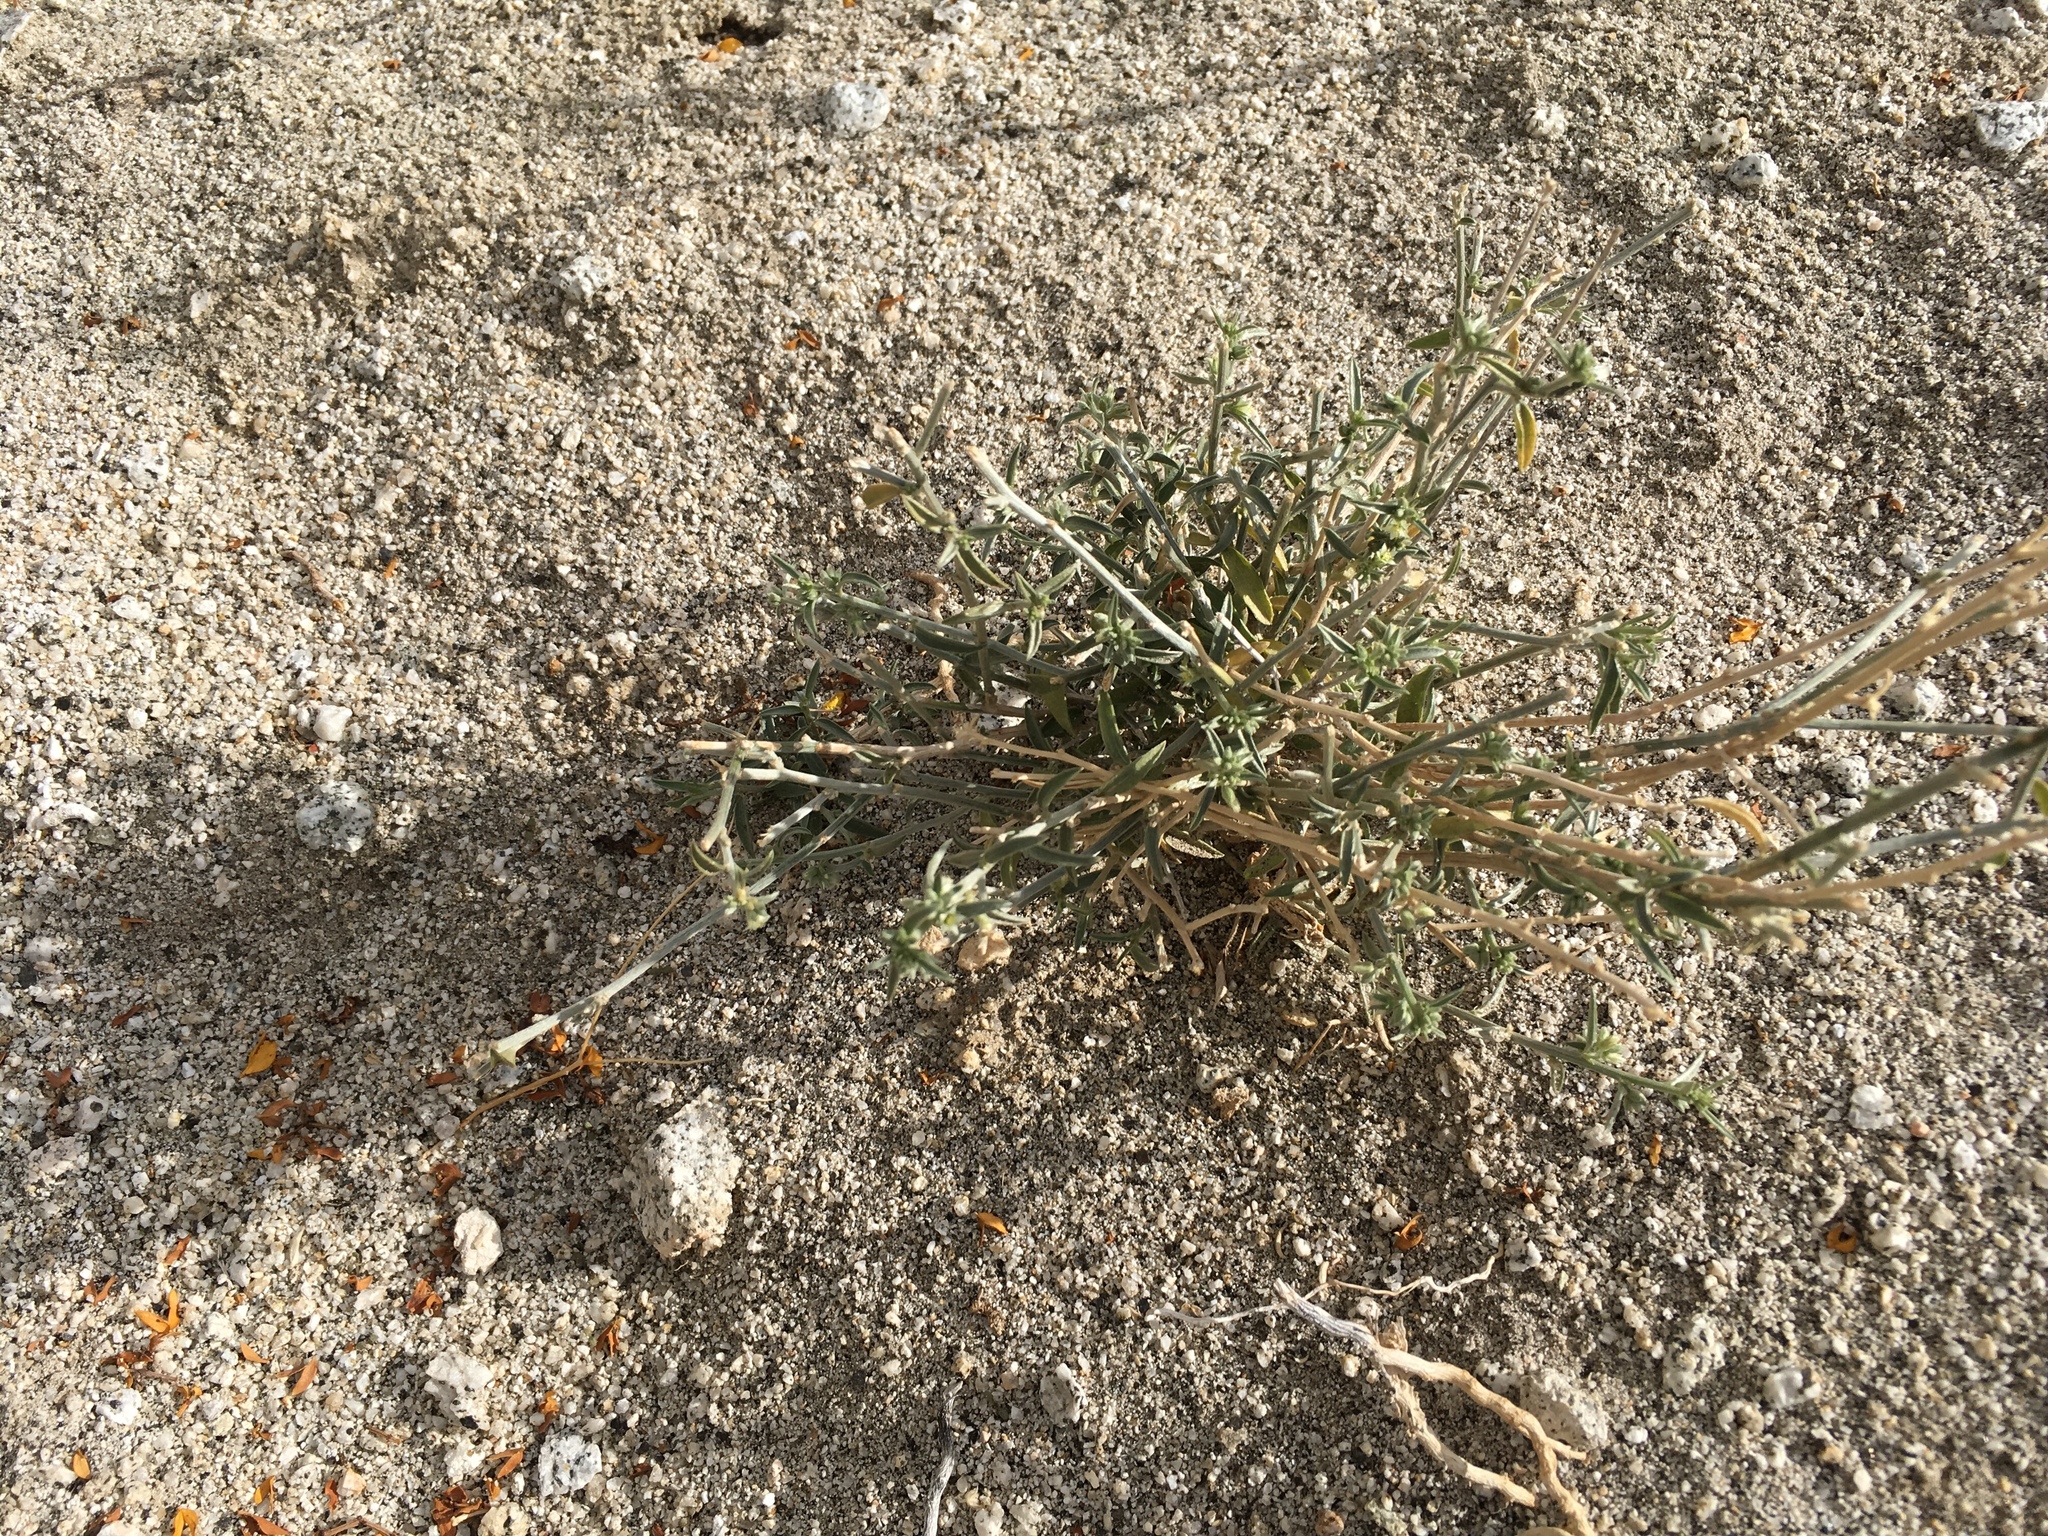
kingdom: Plantae
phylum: Tracheophyta
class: Magnoliopsida
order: Malpighiales
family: Euphorbiaceae
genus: Ditaxis
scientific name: Ditaxis lanceolata
